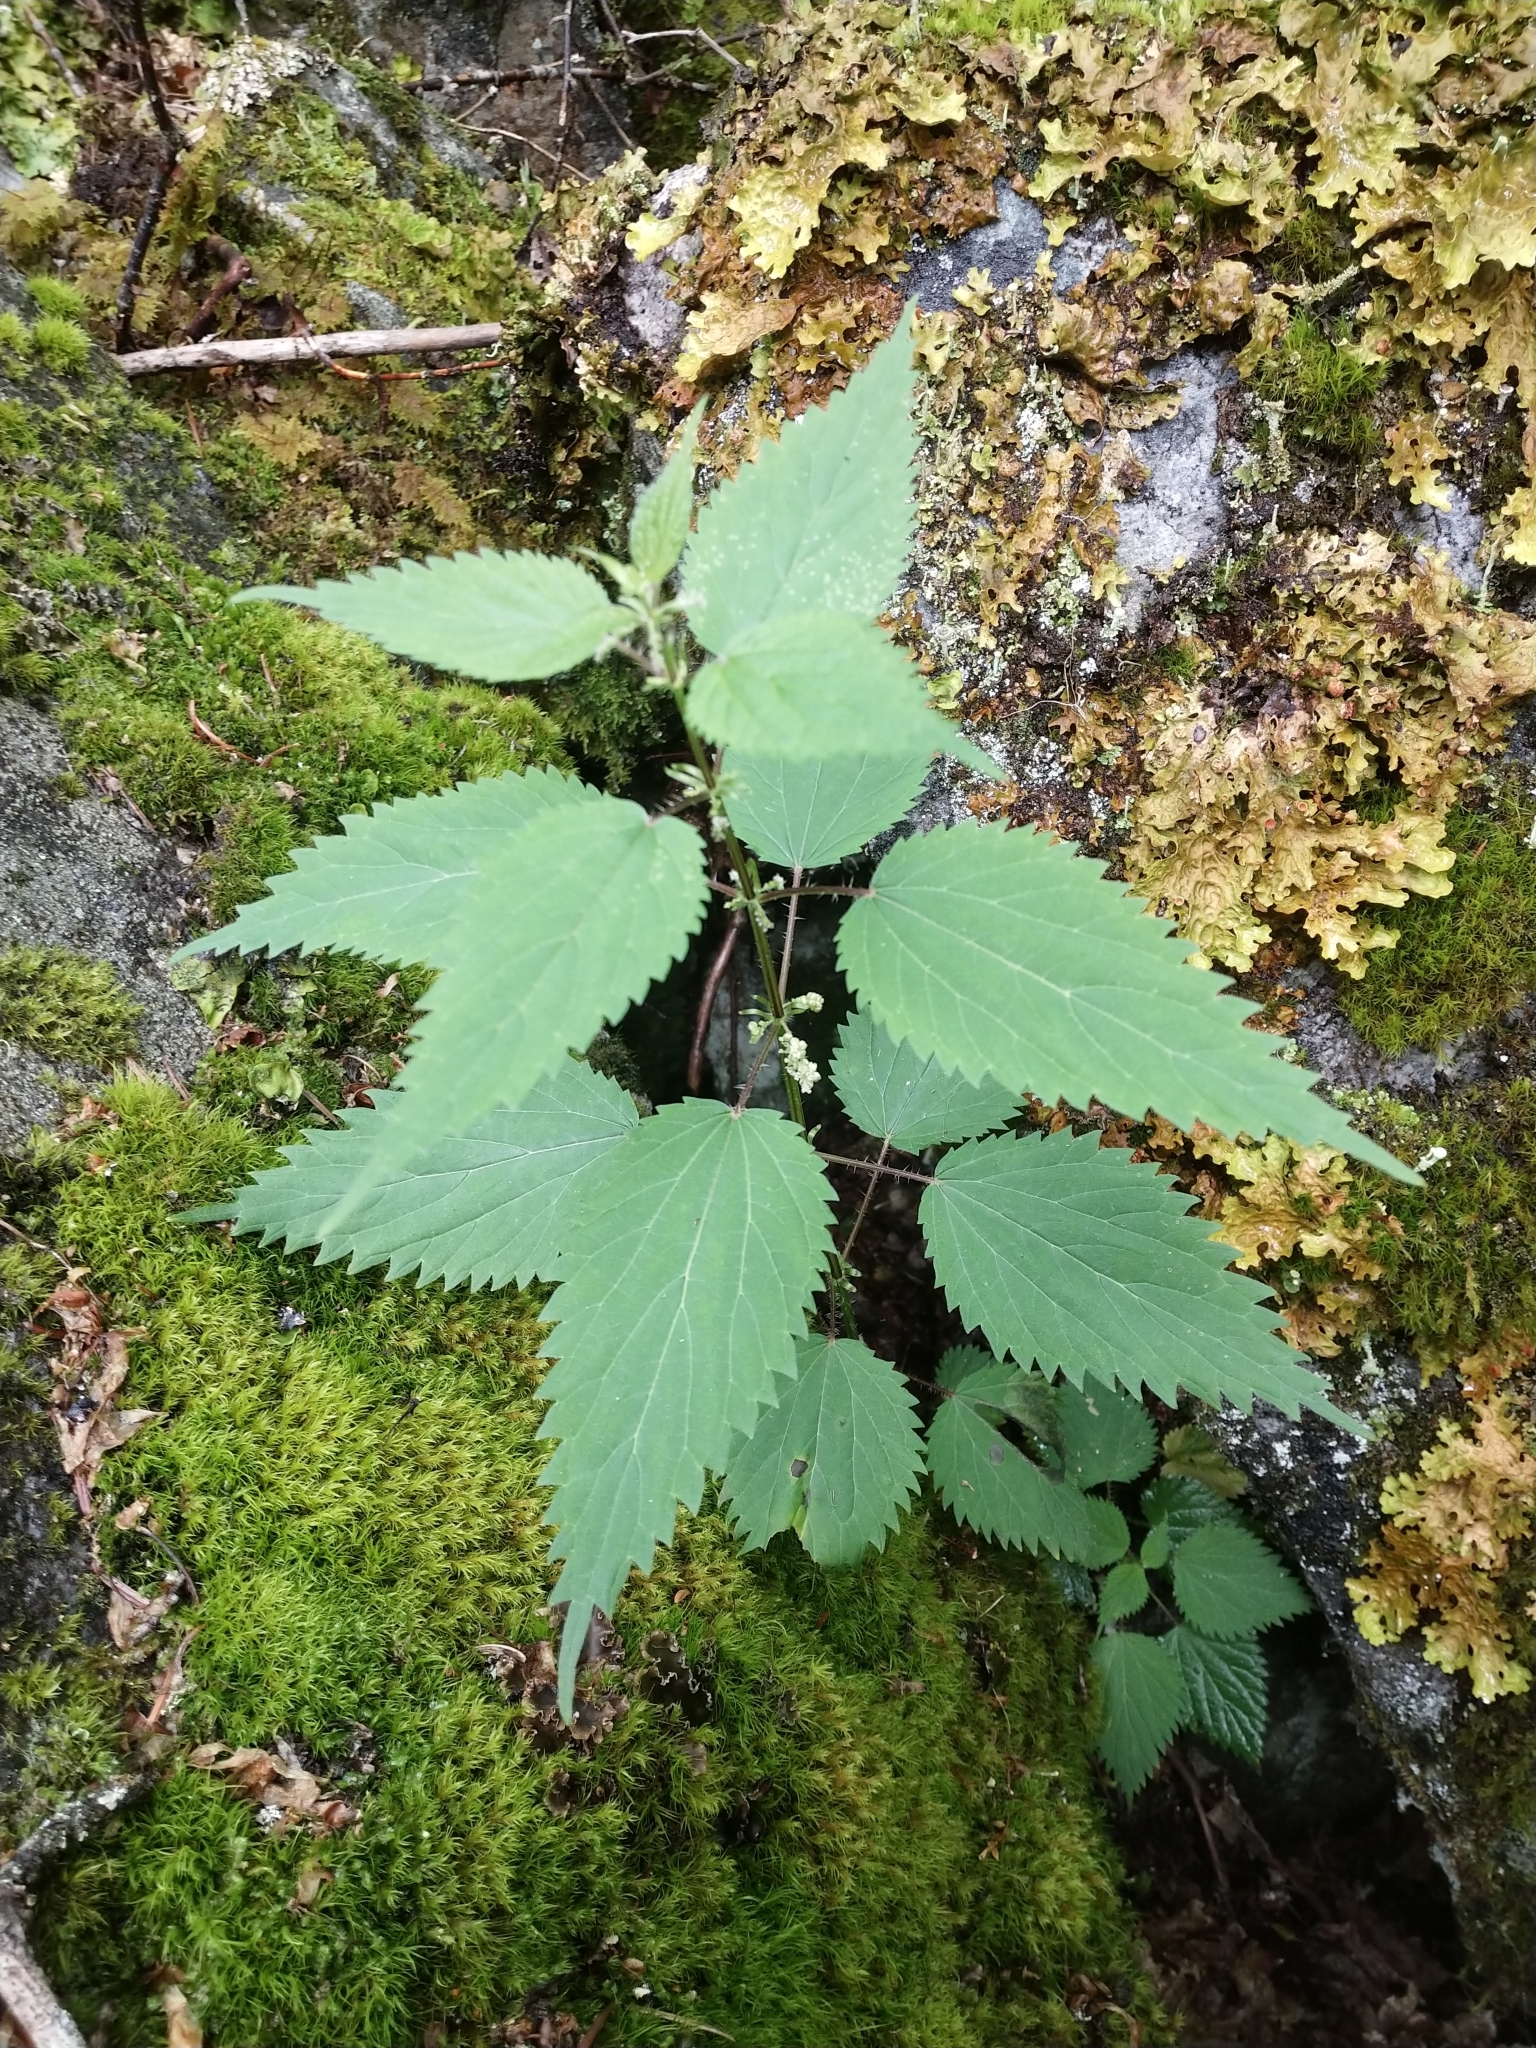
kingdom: Plantae
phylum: Tracheophyta
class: Magnoliopsida
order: Rosales
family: Urticaceae
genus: Urtica
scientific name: Urtica dioica
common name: Common nettle
